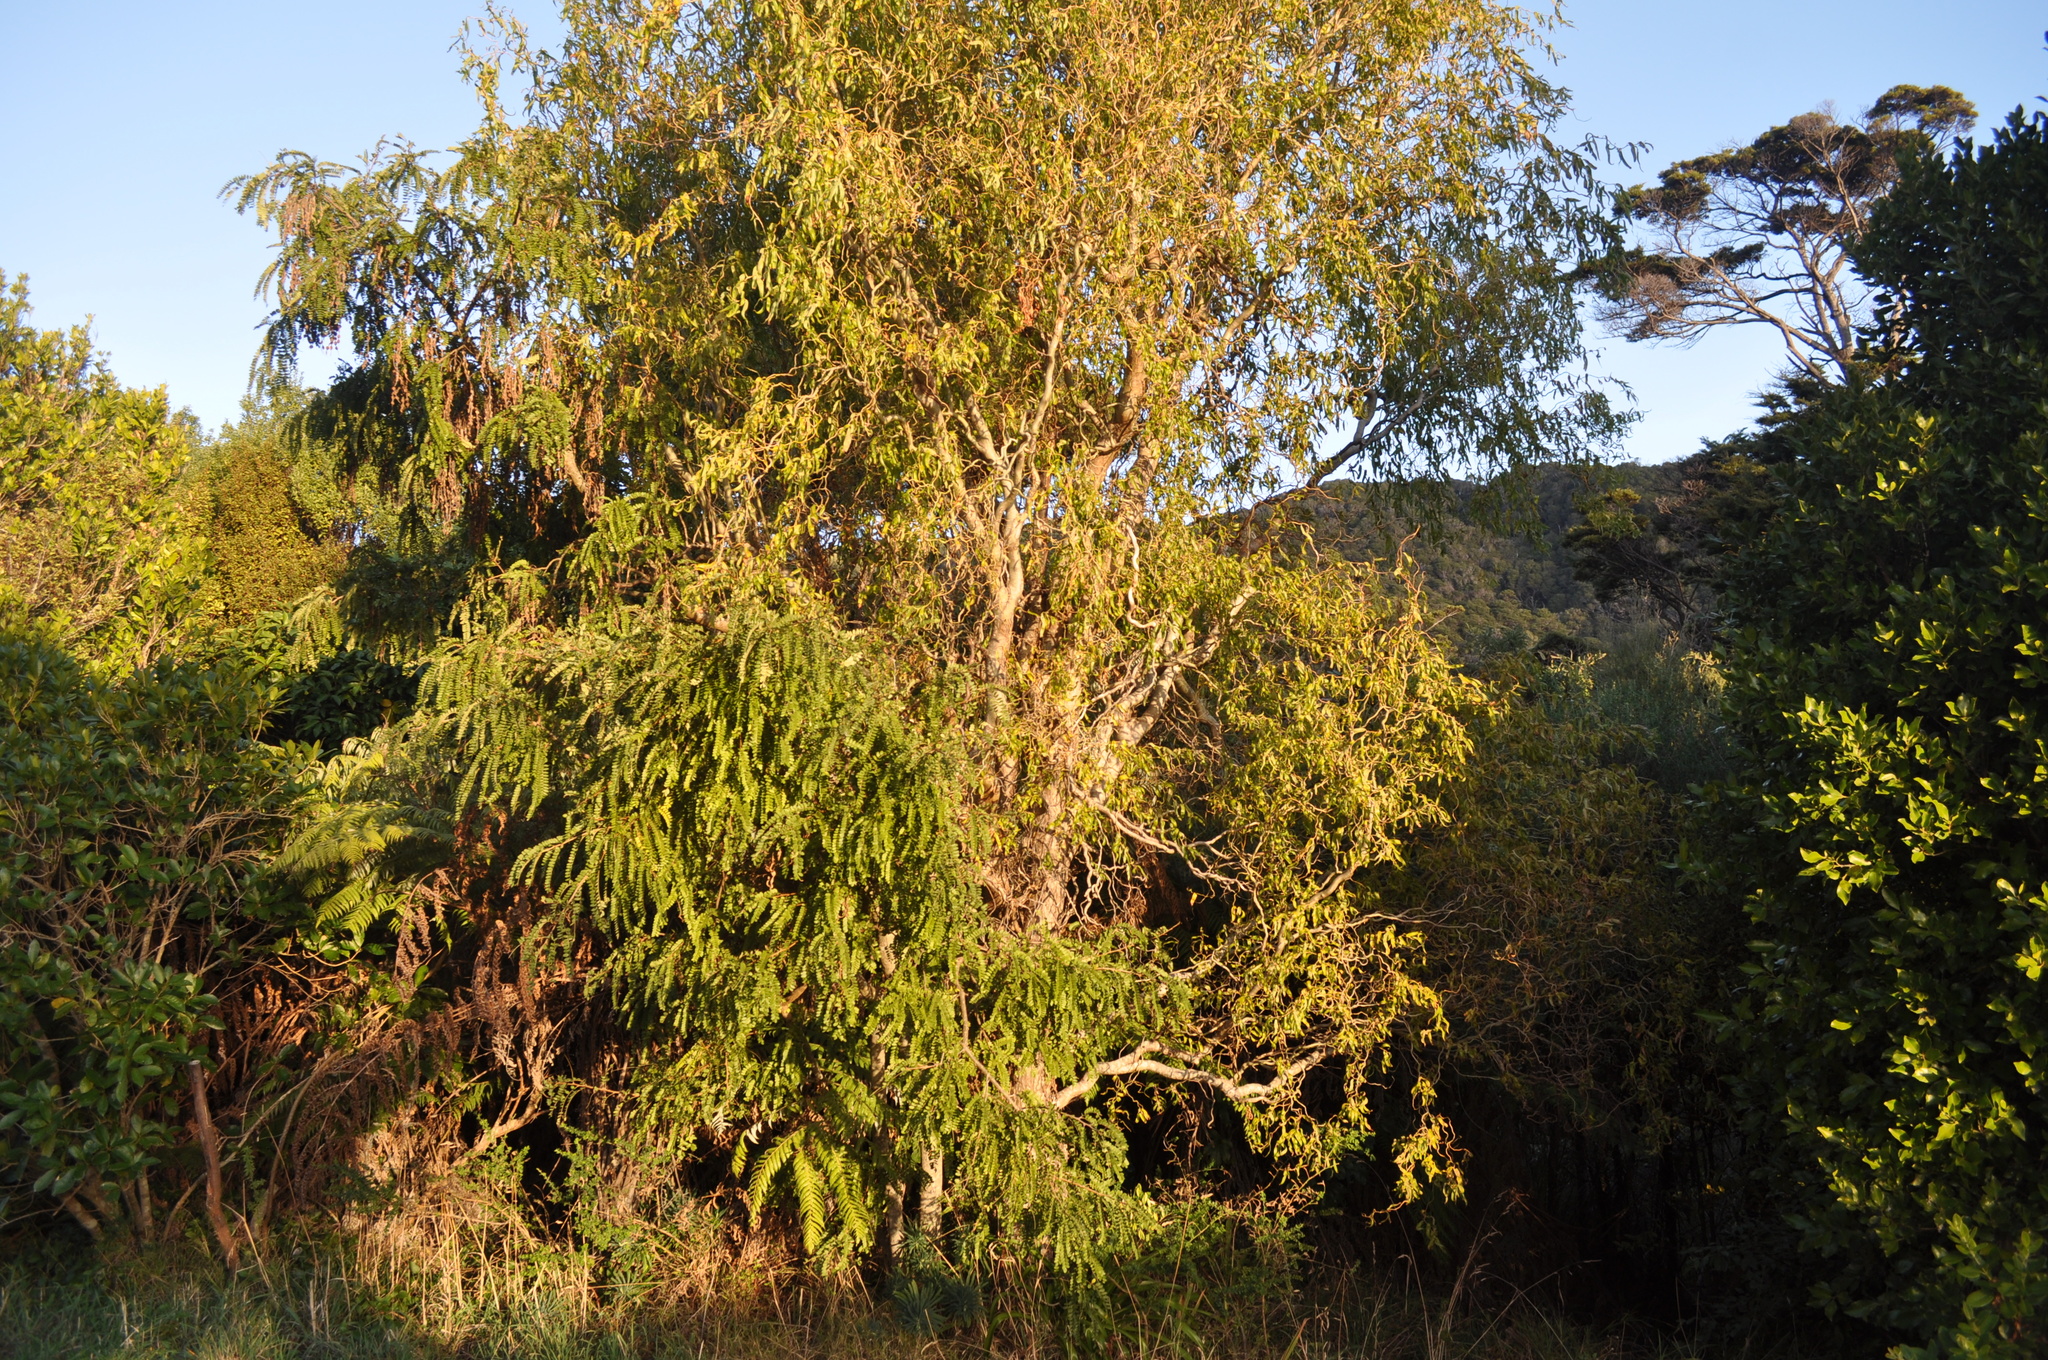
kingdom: Plantae
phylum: Tracheophyta
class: Magnoliopsida
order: Fabales
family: Fabaceae
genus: Sophora
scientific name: Sophora microphylla
